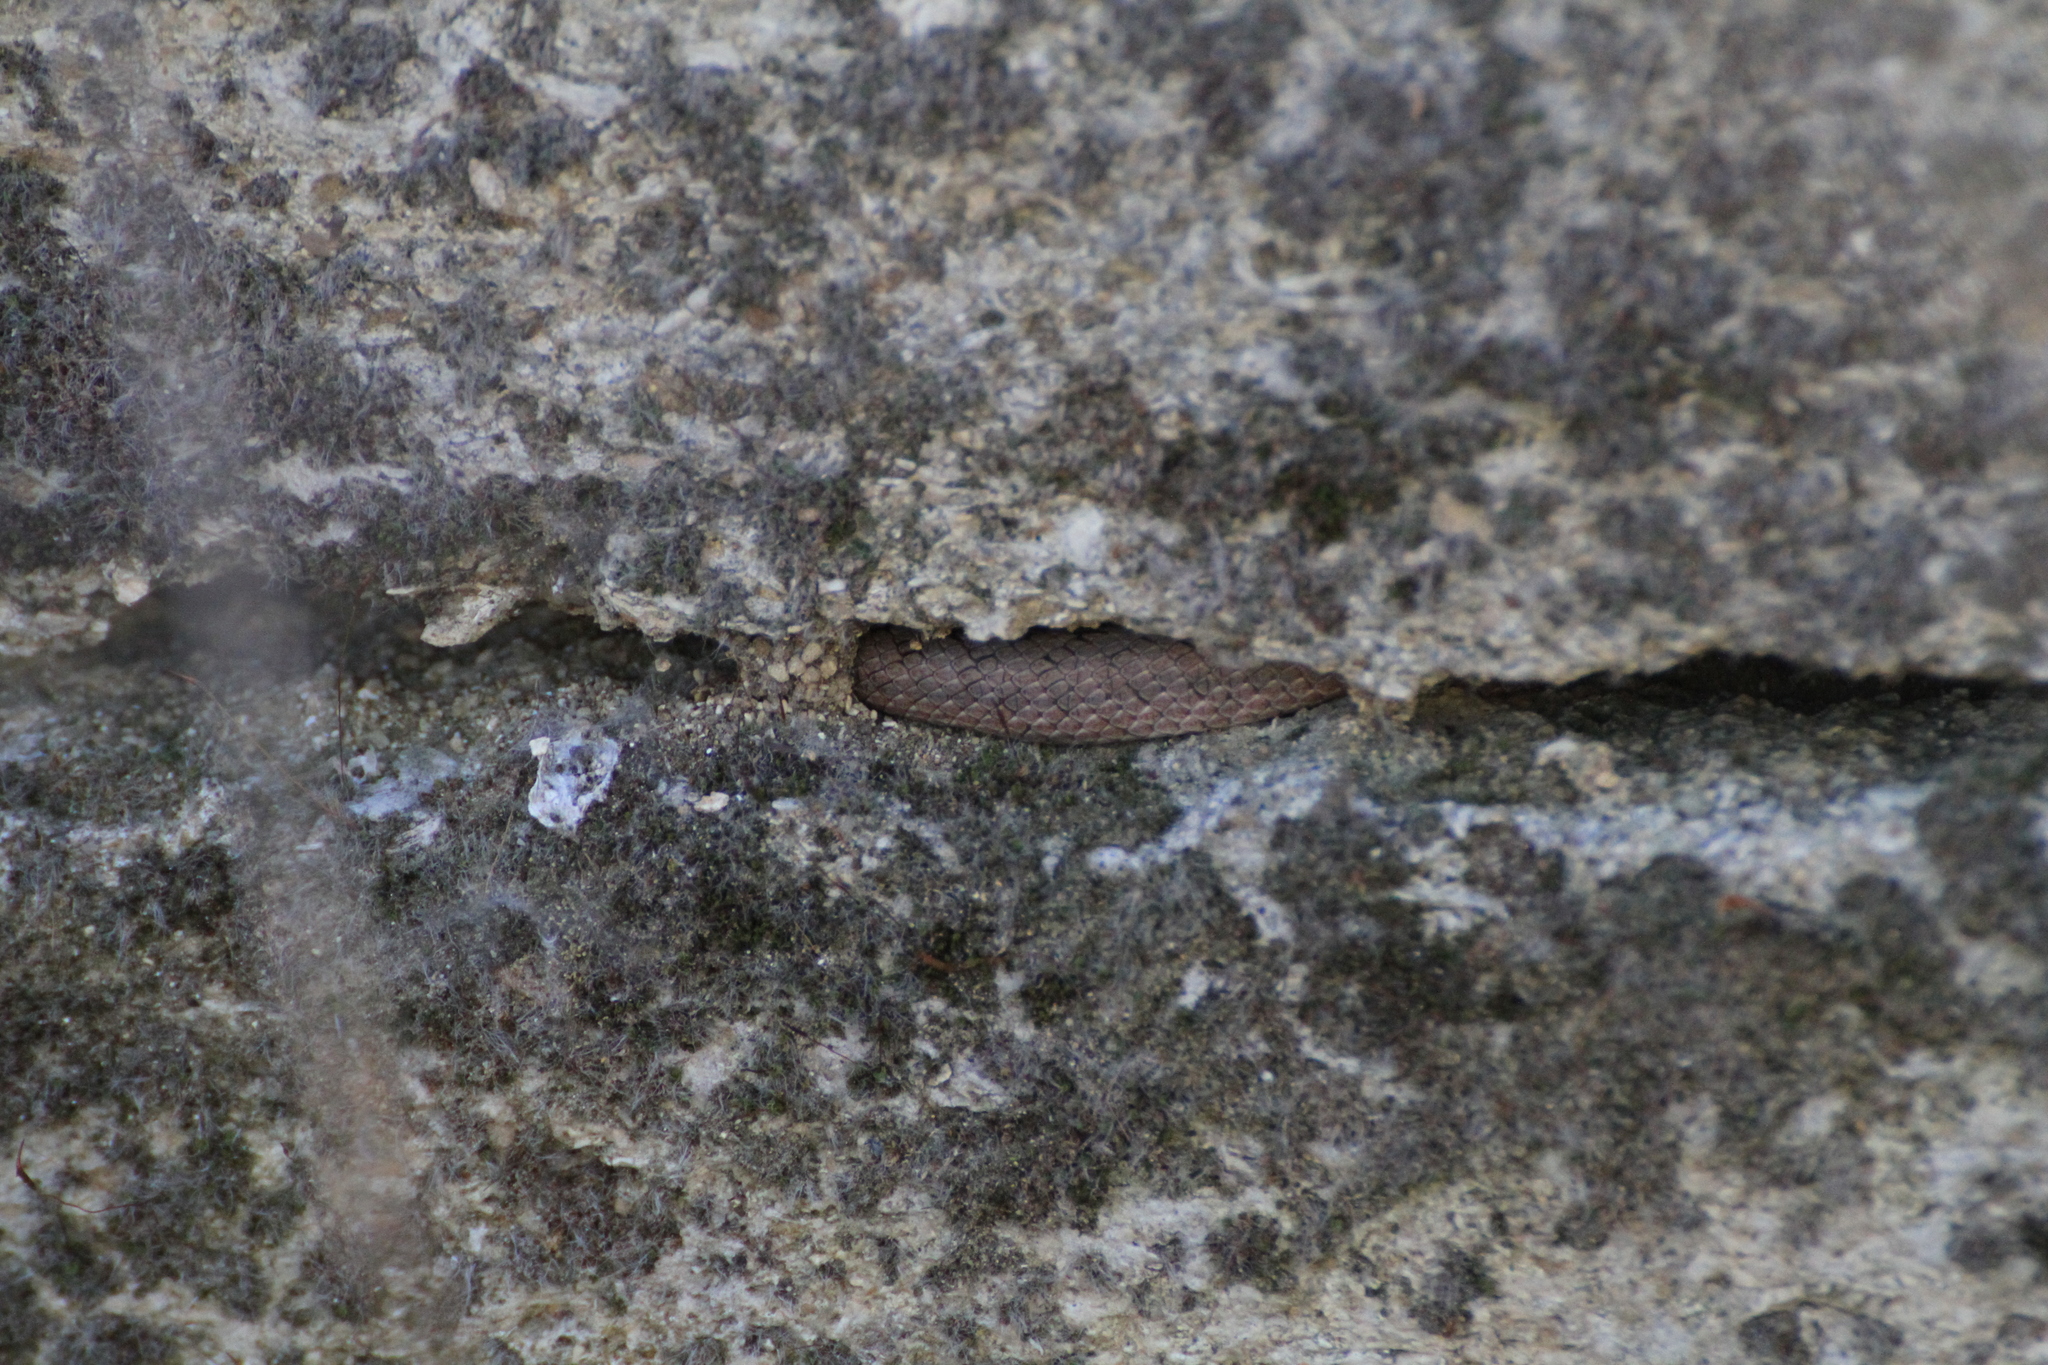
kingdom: Animalia
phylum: Chordata
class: Squamata
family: Colubridae
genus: Coronella
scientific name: Coronella girondica
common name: Southern smooth snake
